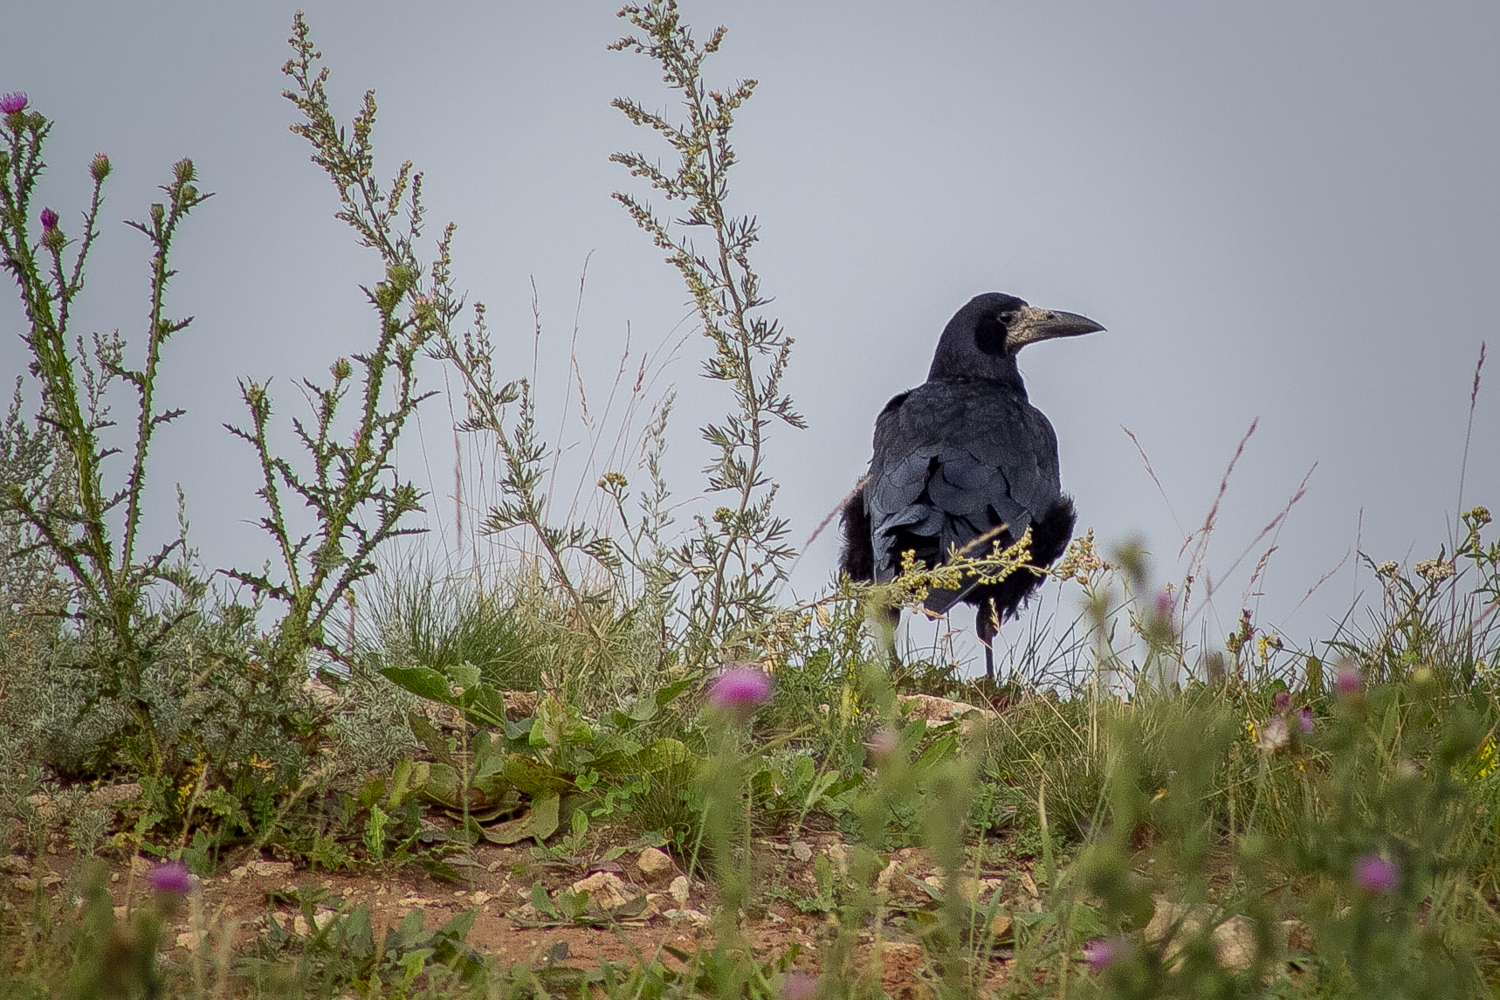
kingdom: Animalia
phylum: Chordata
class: Aves
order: Passeriformes
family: Corvidae
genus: Corvus
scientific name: Corvus frugilegus
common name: Rook
